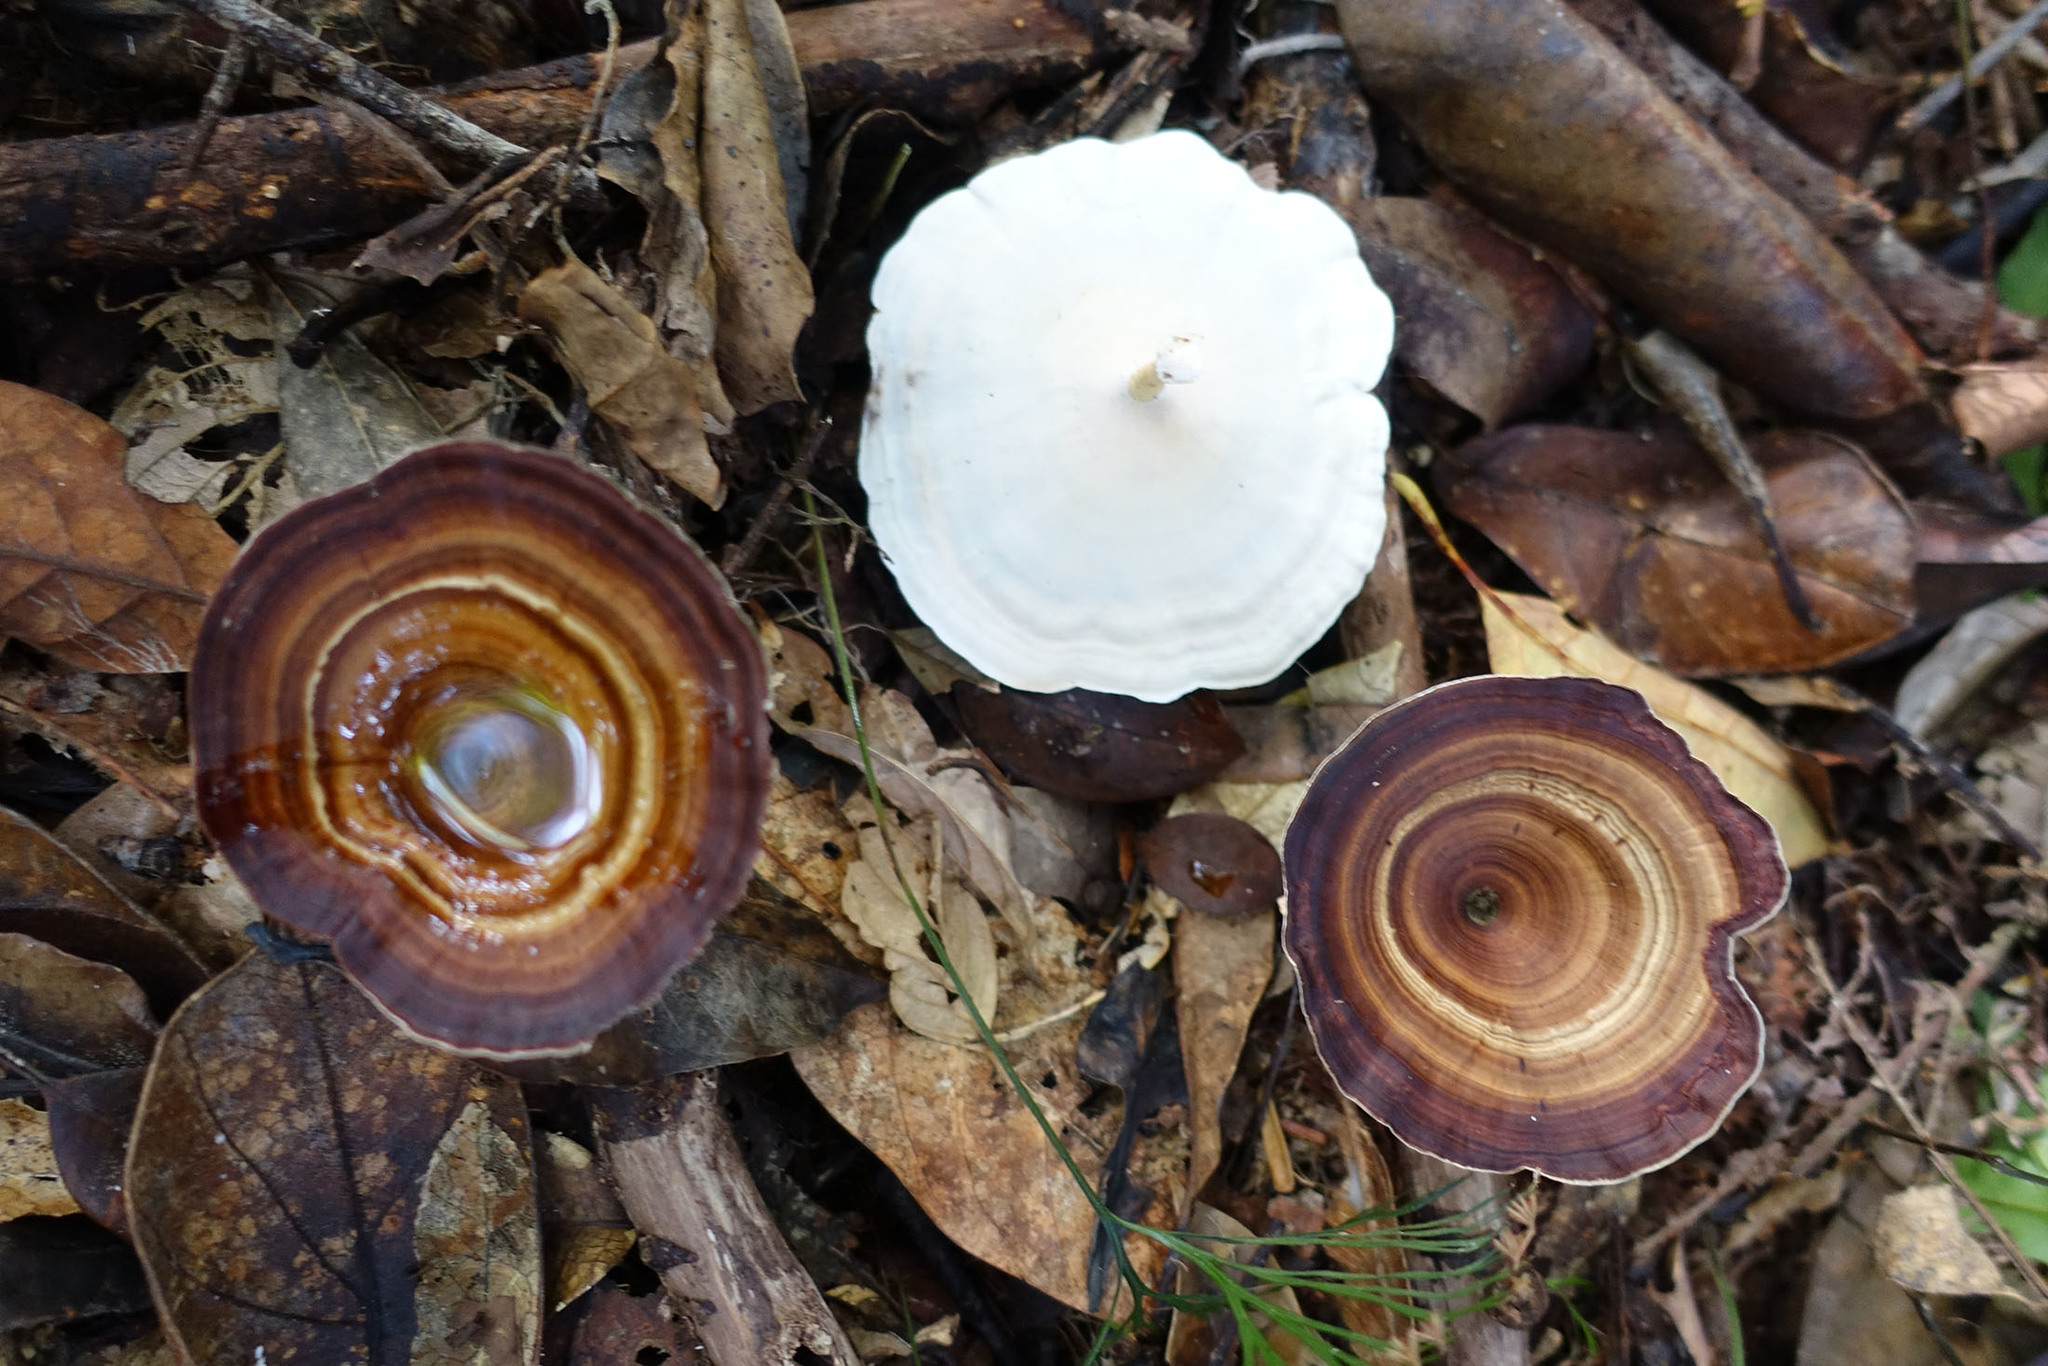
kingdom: Fungi
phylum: Basidiomycota
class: Agaricomycetes
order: Polyporales
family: Polyporaceae
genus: Microporus
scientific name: Microporus xanthopus
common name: Yellow-stemmed micropore
